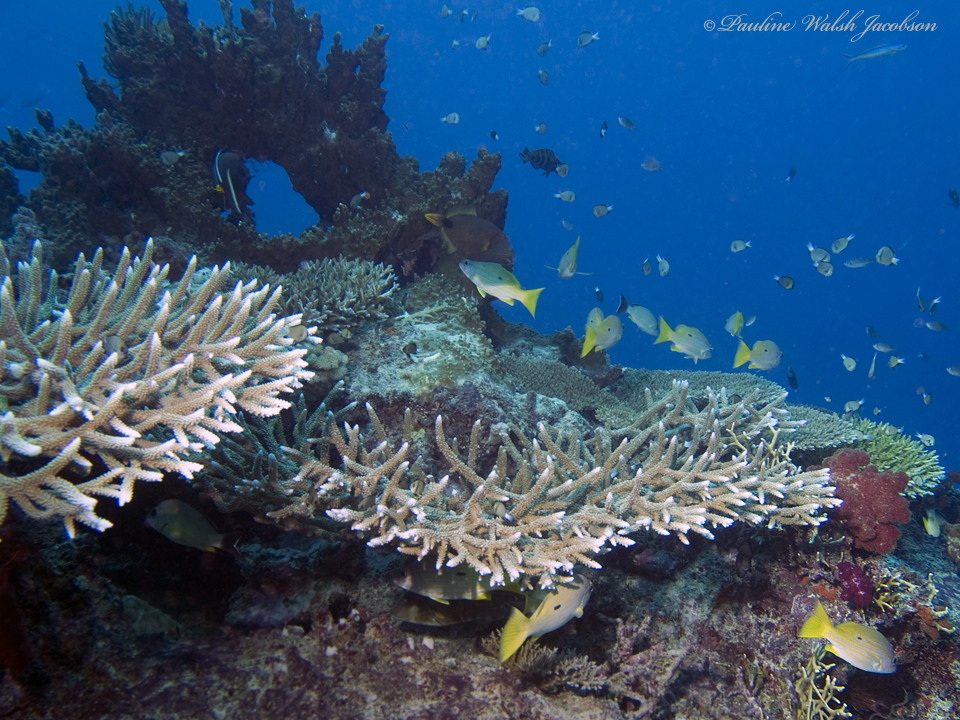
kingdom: Animalia
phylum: Chordata
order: Perciformes
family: Lutjanidae
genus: Lutjanus
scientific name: Lutjanus fulviflamma
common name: Blackspot snapper
